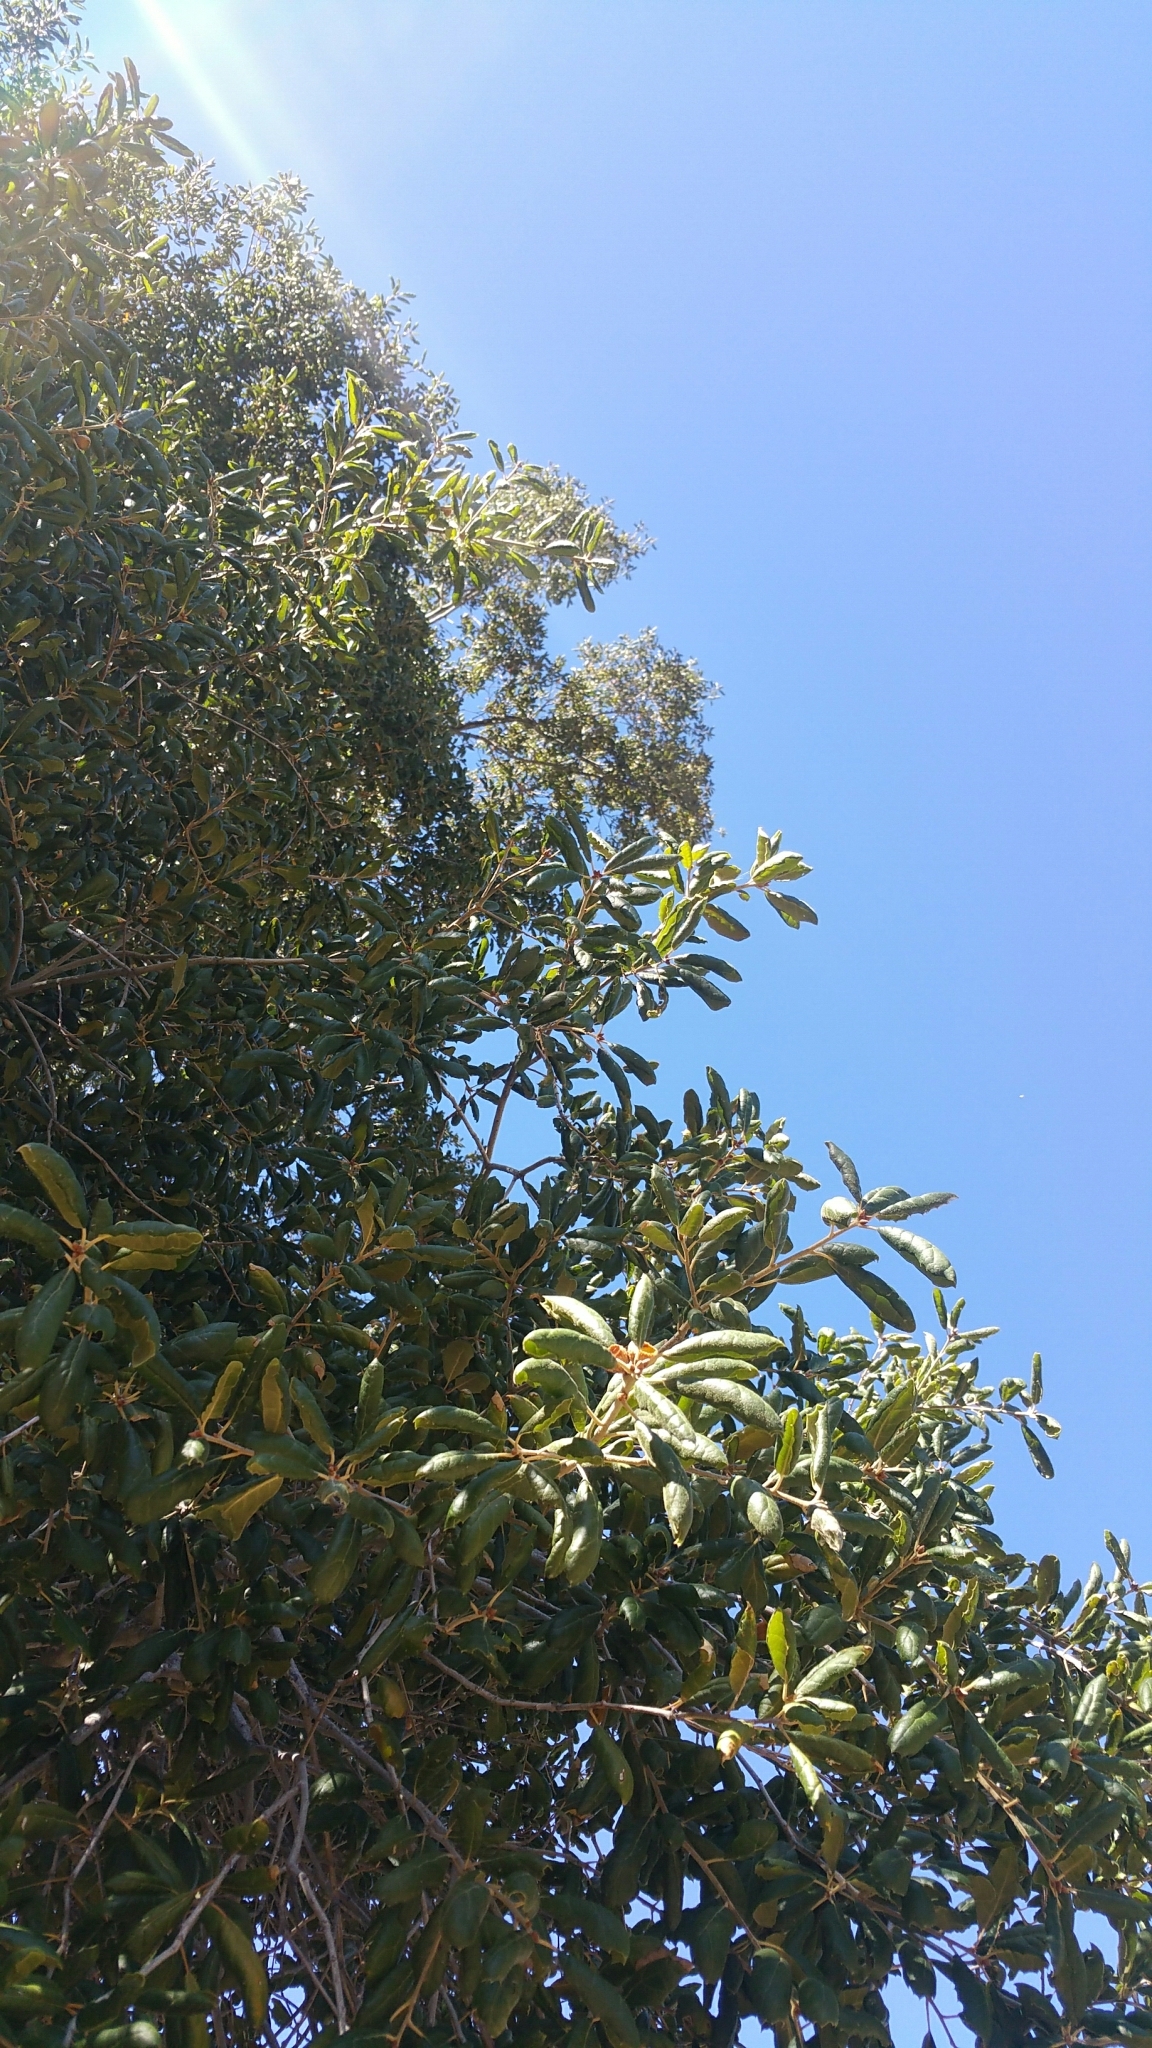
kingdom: Plantae
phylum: Tracheophyta
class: Magnoliopsida
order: Fagales
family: Fagaceae
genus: Quercus
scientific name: Quercus agrifolia
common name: California live oak
